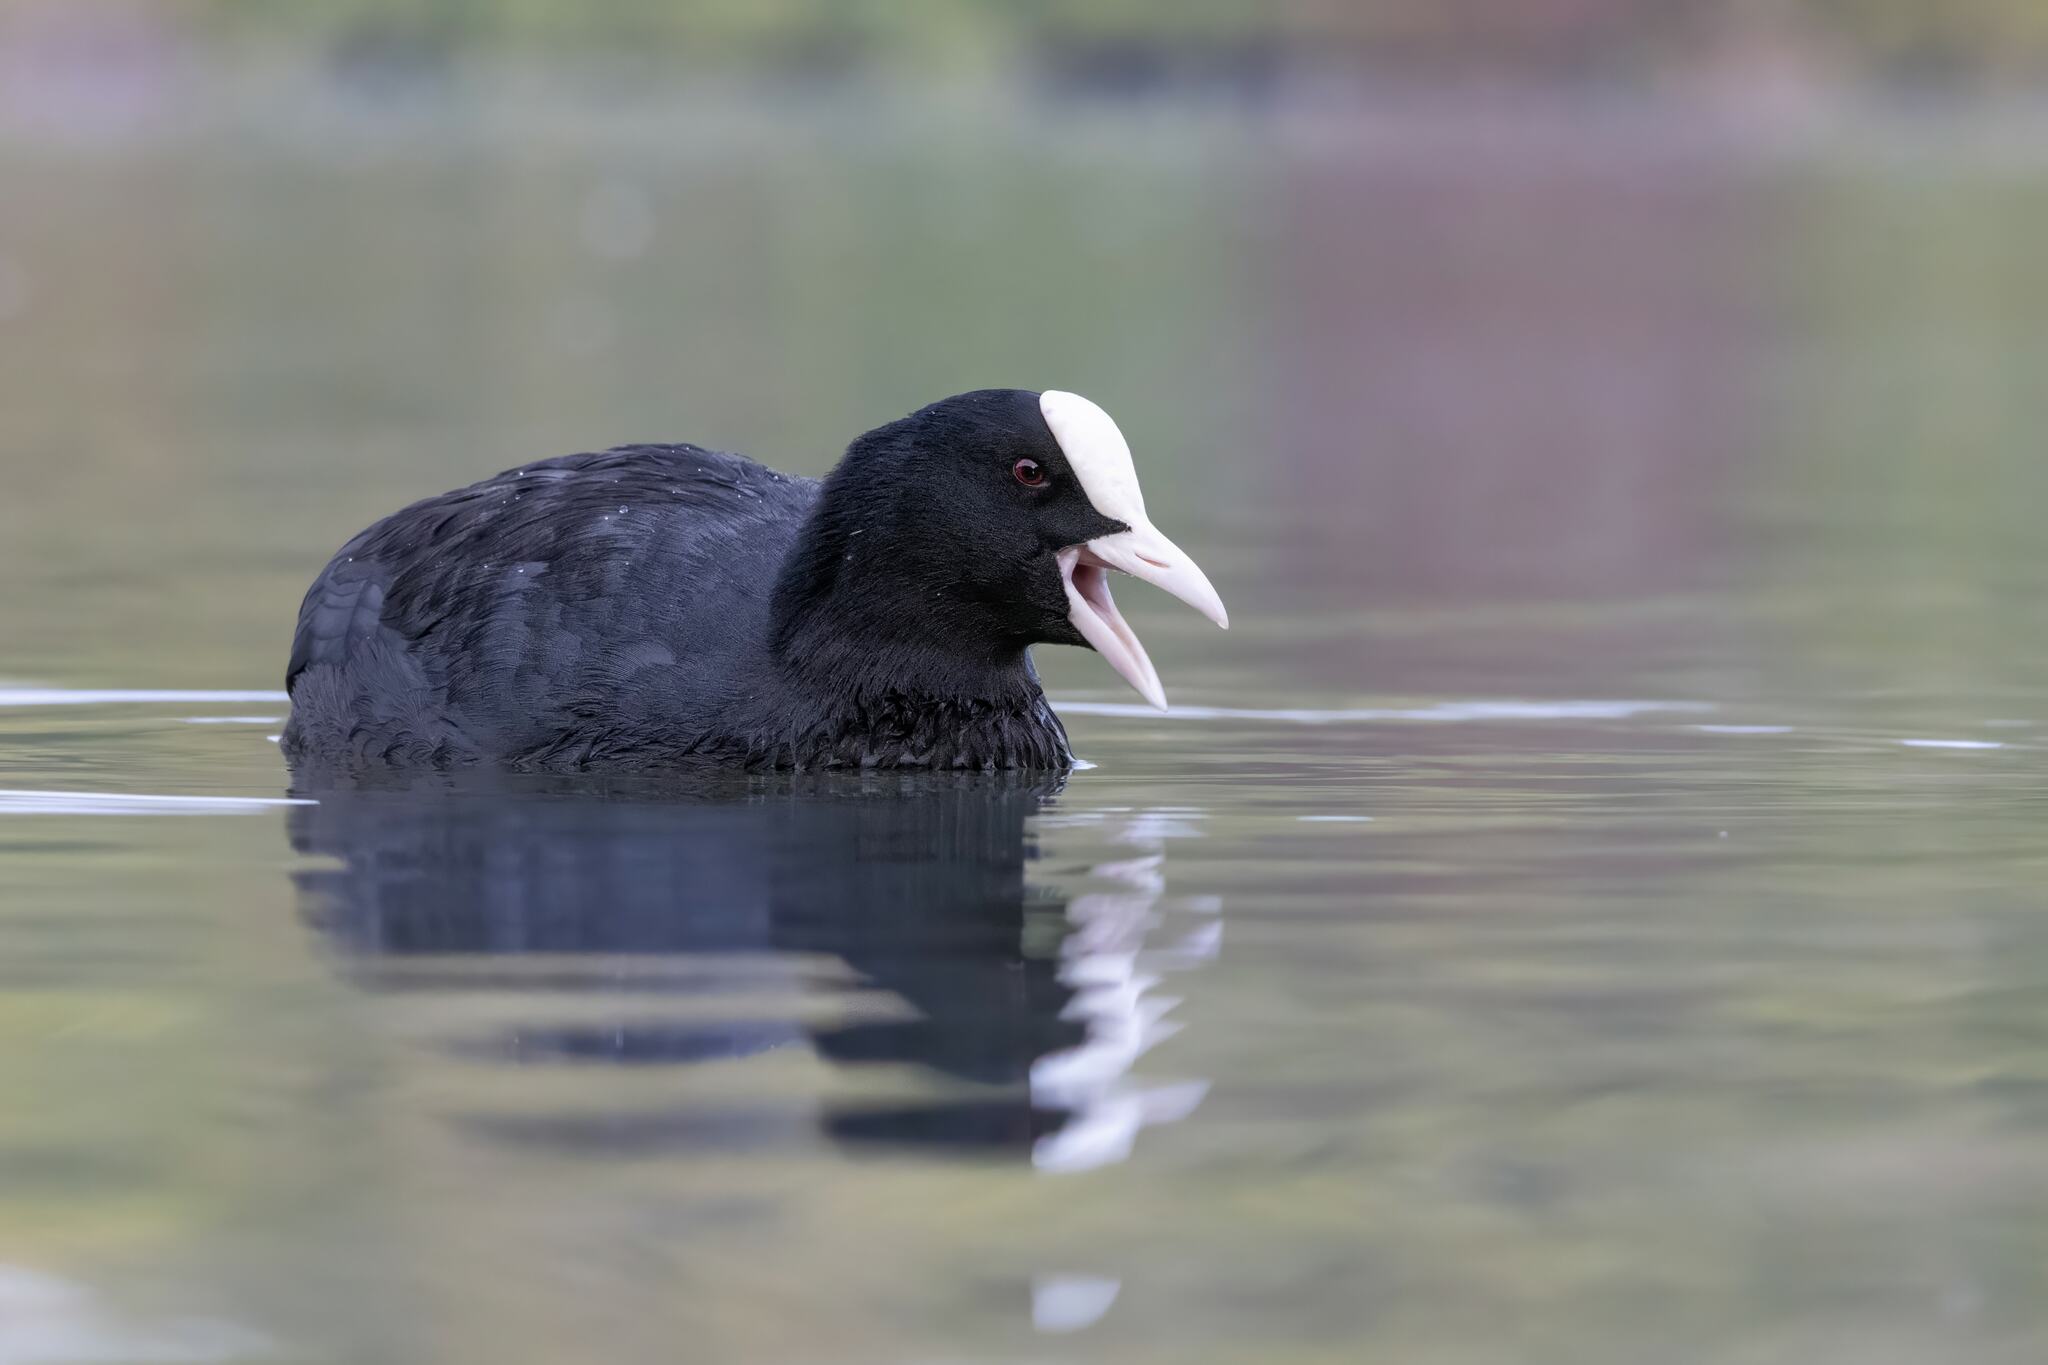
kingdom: Animalia
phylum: Chordata
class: Aves
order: Gruiformes
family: Rallidae
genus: Fulica
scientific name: Fulica atra
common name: Eurasian coot
